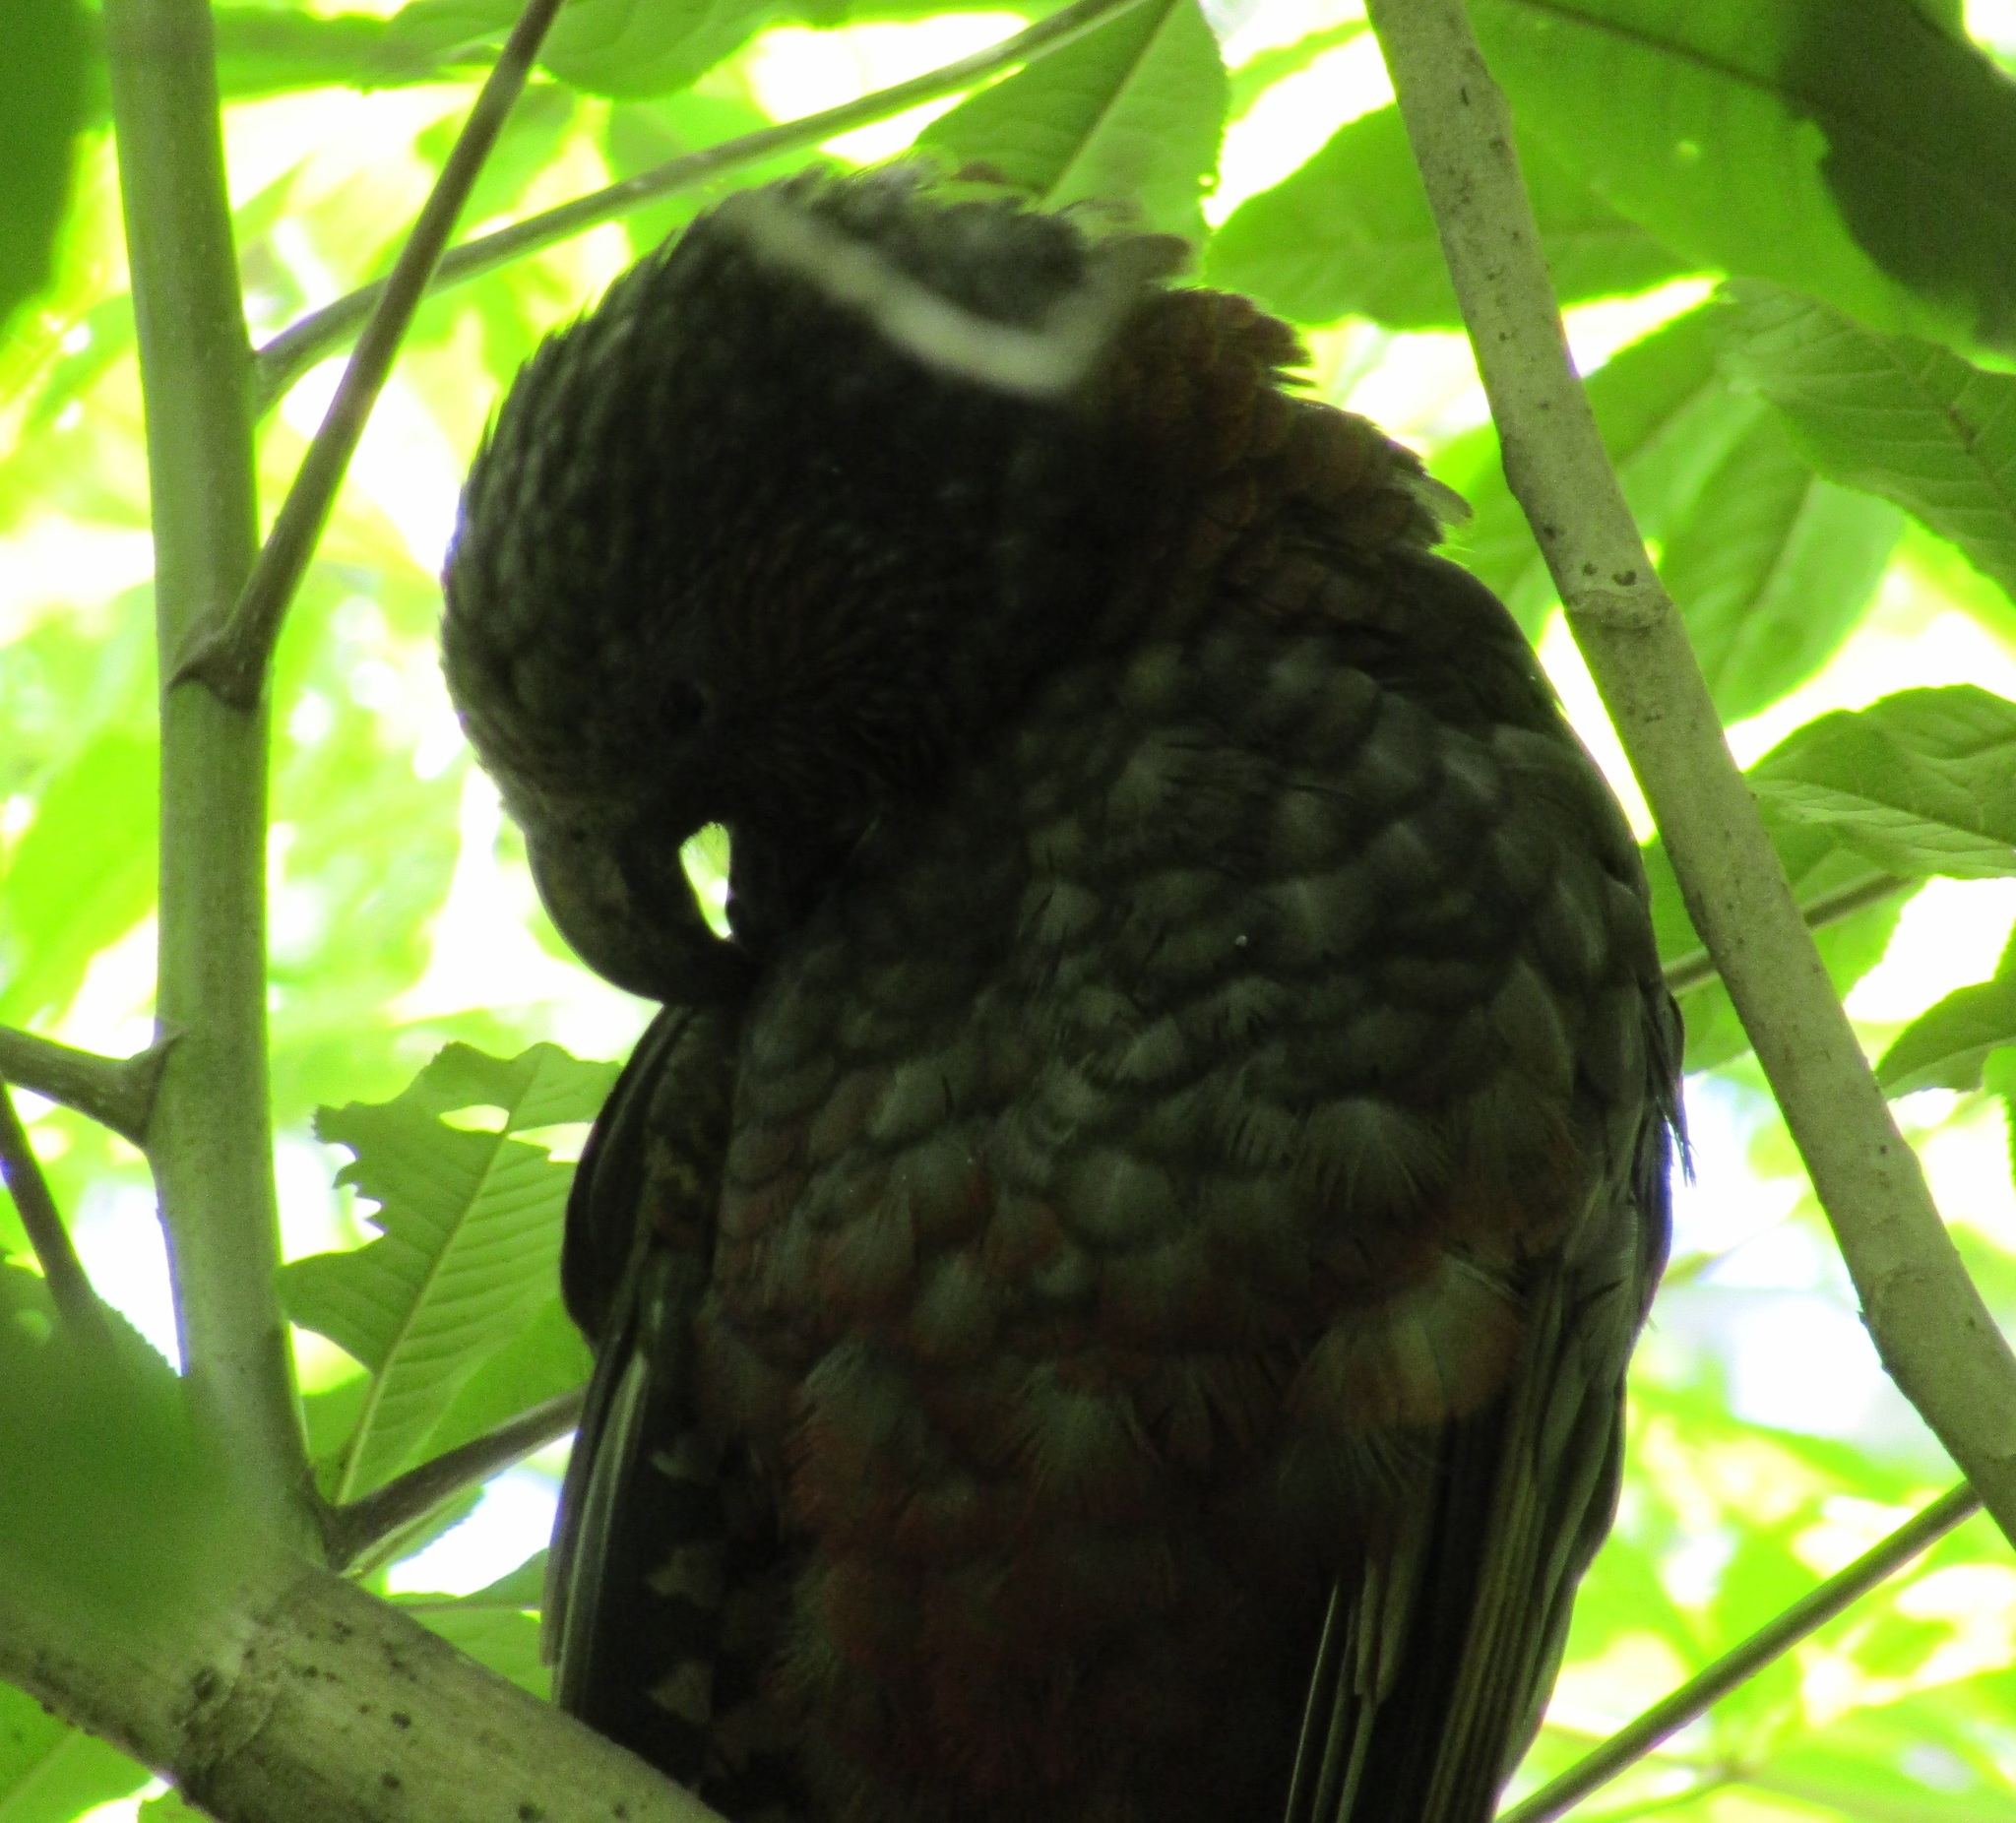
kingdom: Animalia
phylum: Chordata
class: Aves
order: Psittaciformes
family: Psittacidae
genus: Nestor
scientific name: Nestor meridionalis
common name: New zealand kaka
